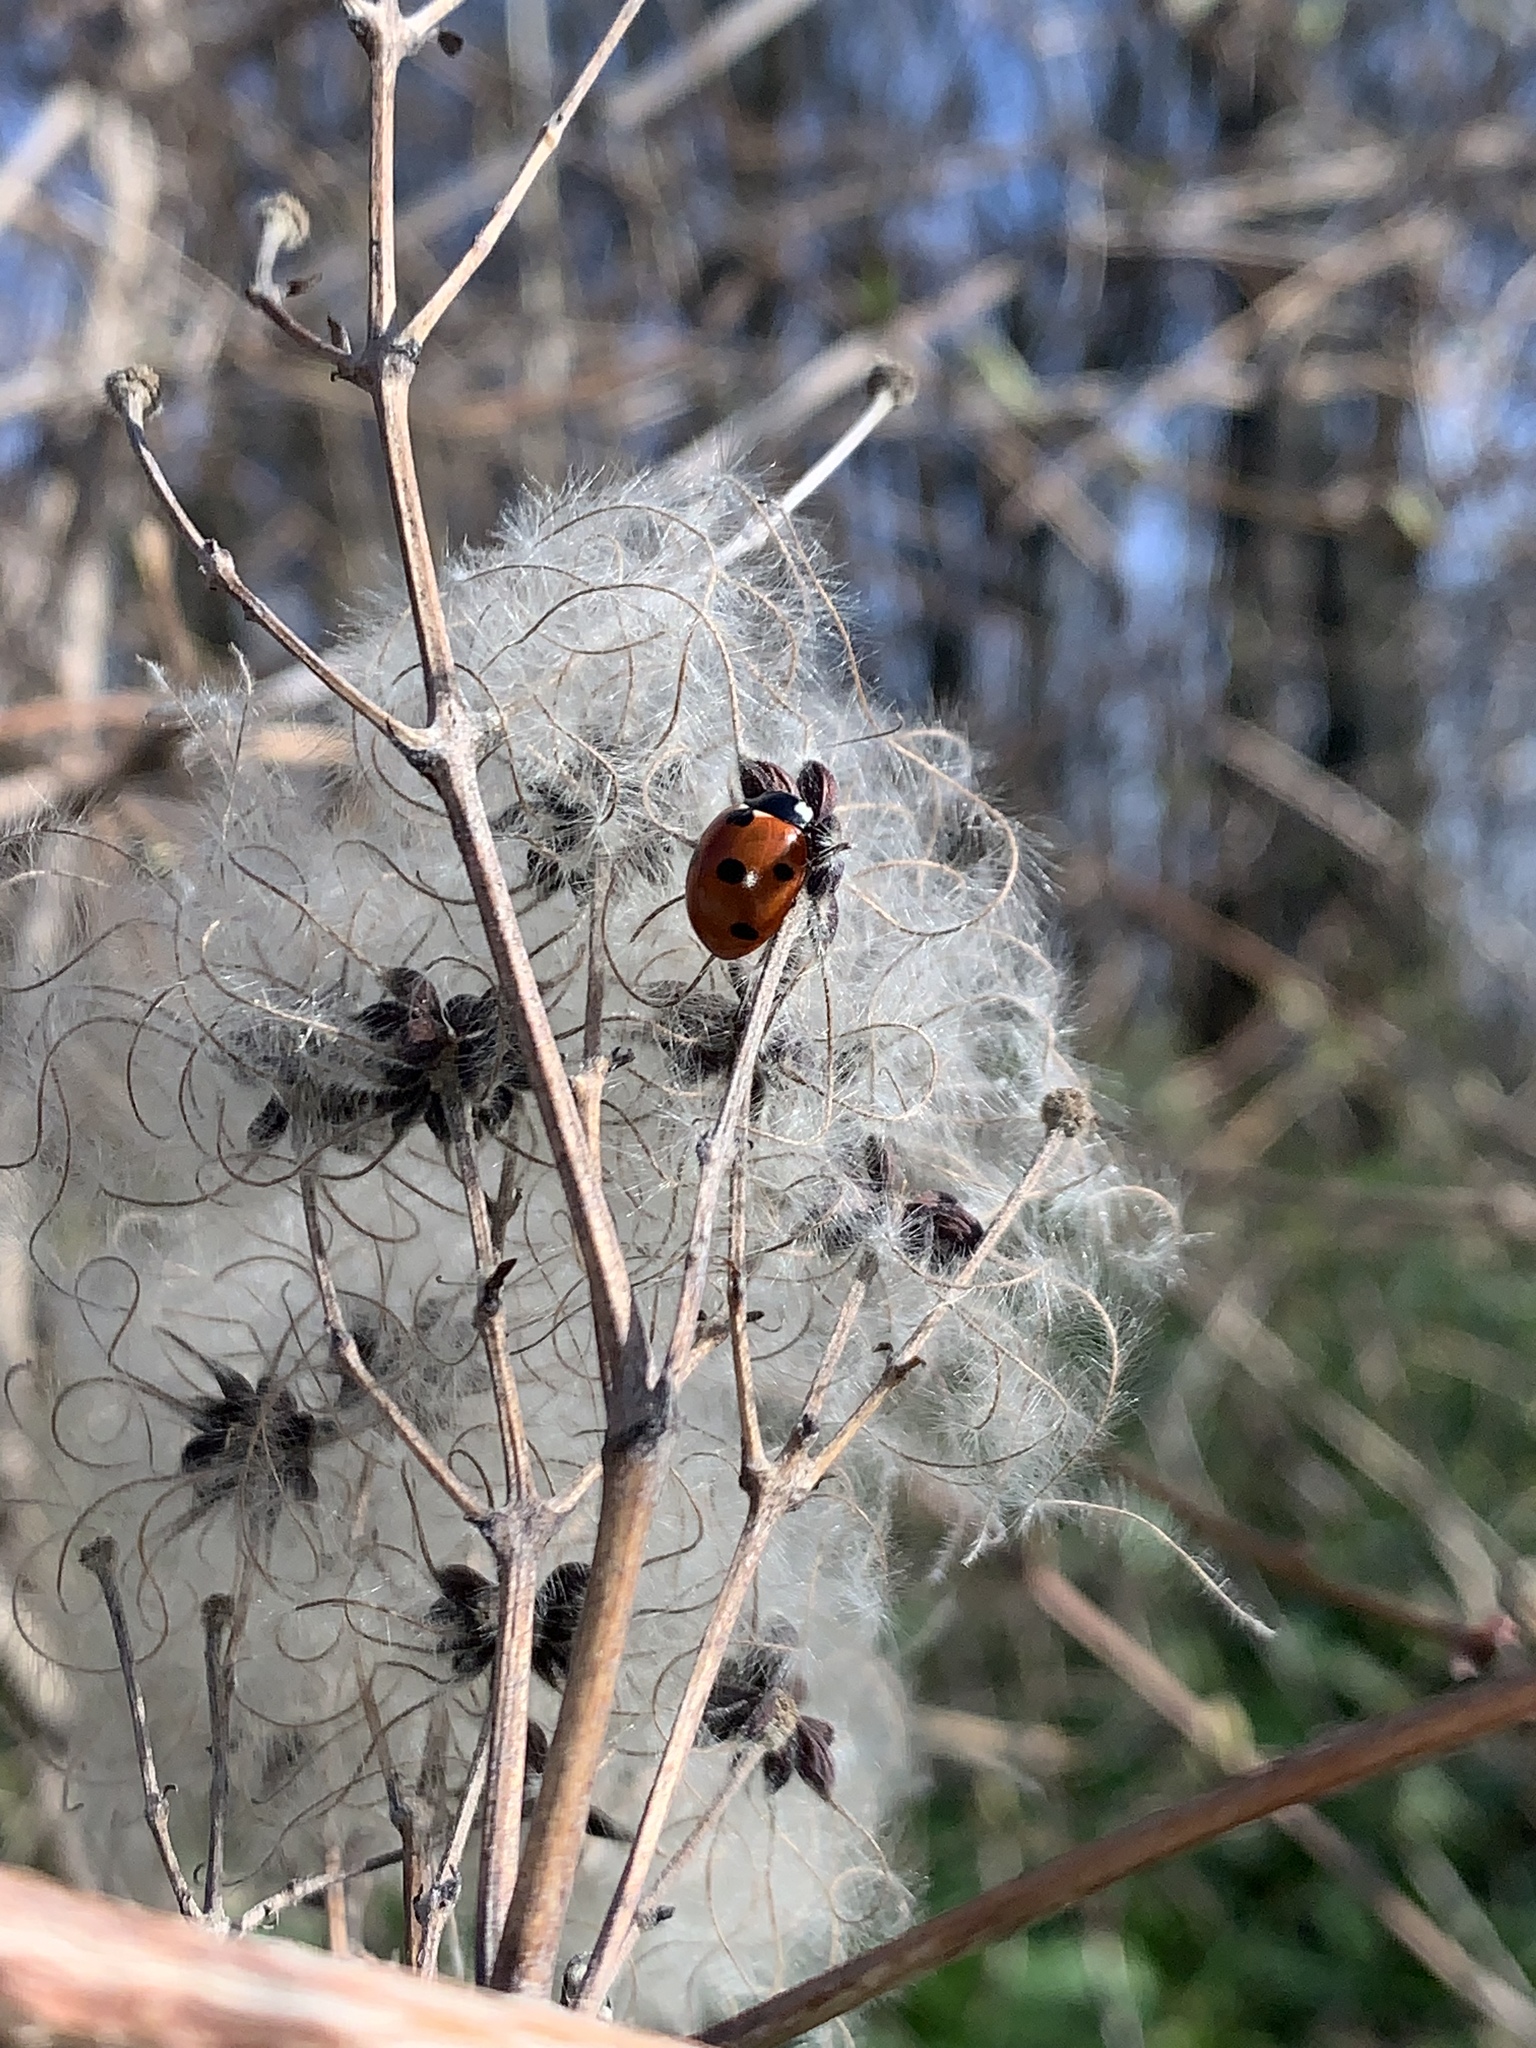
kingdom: Animalia
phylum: Arthropoda
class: Insecta
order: Coleoptera
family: Coccinellidae
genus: Coccinella
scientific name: Coccinella septempunctata
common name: Sevenspotted lady beetle
